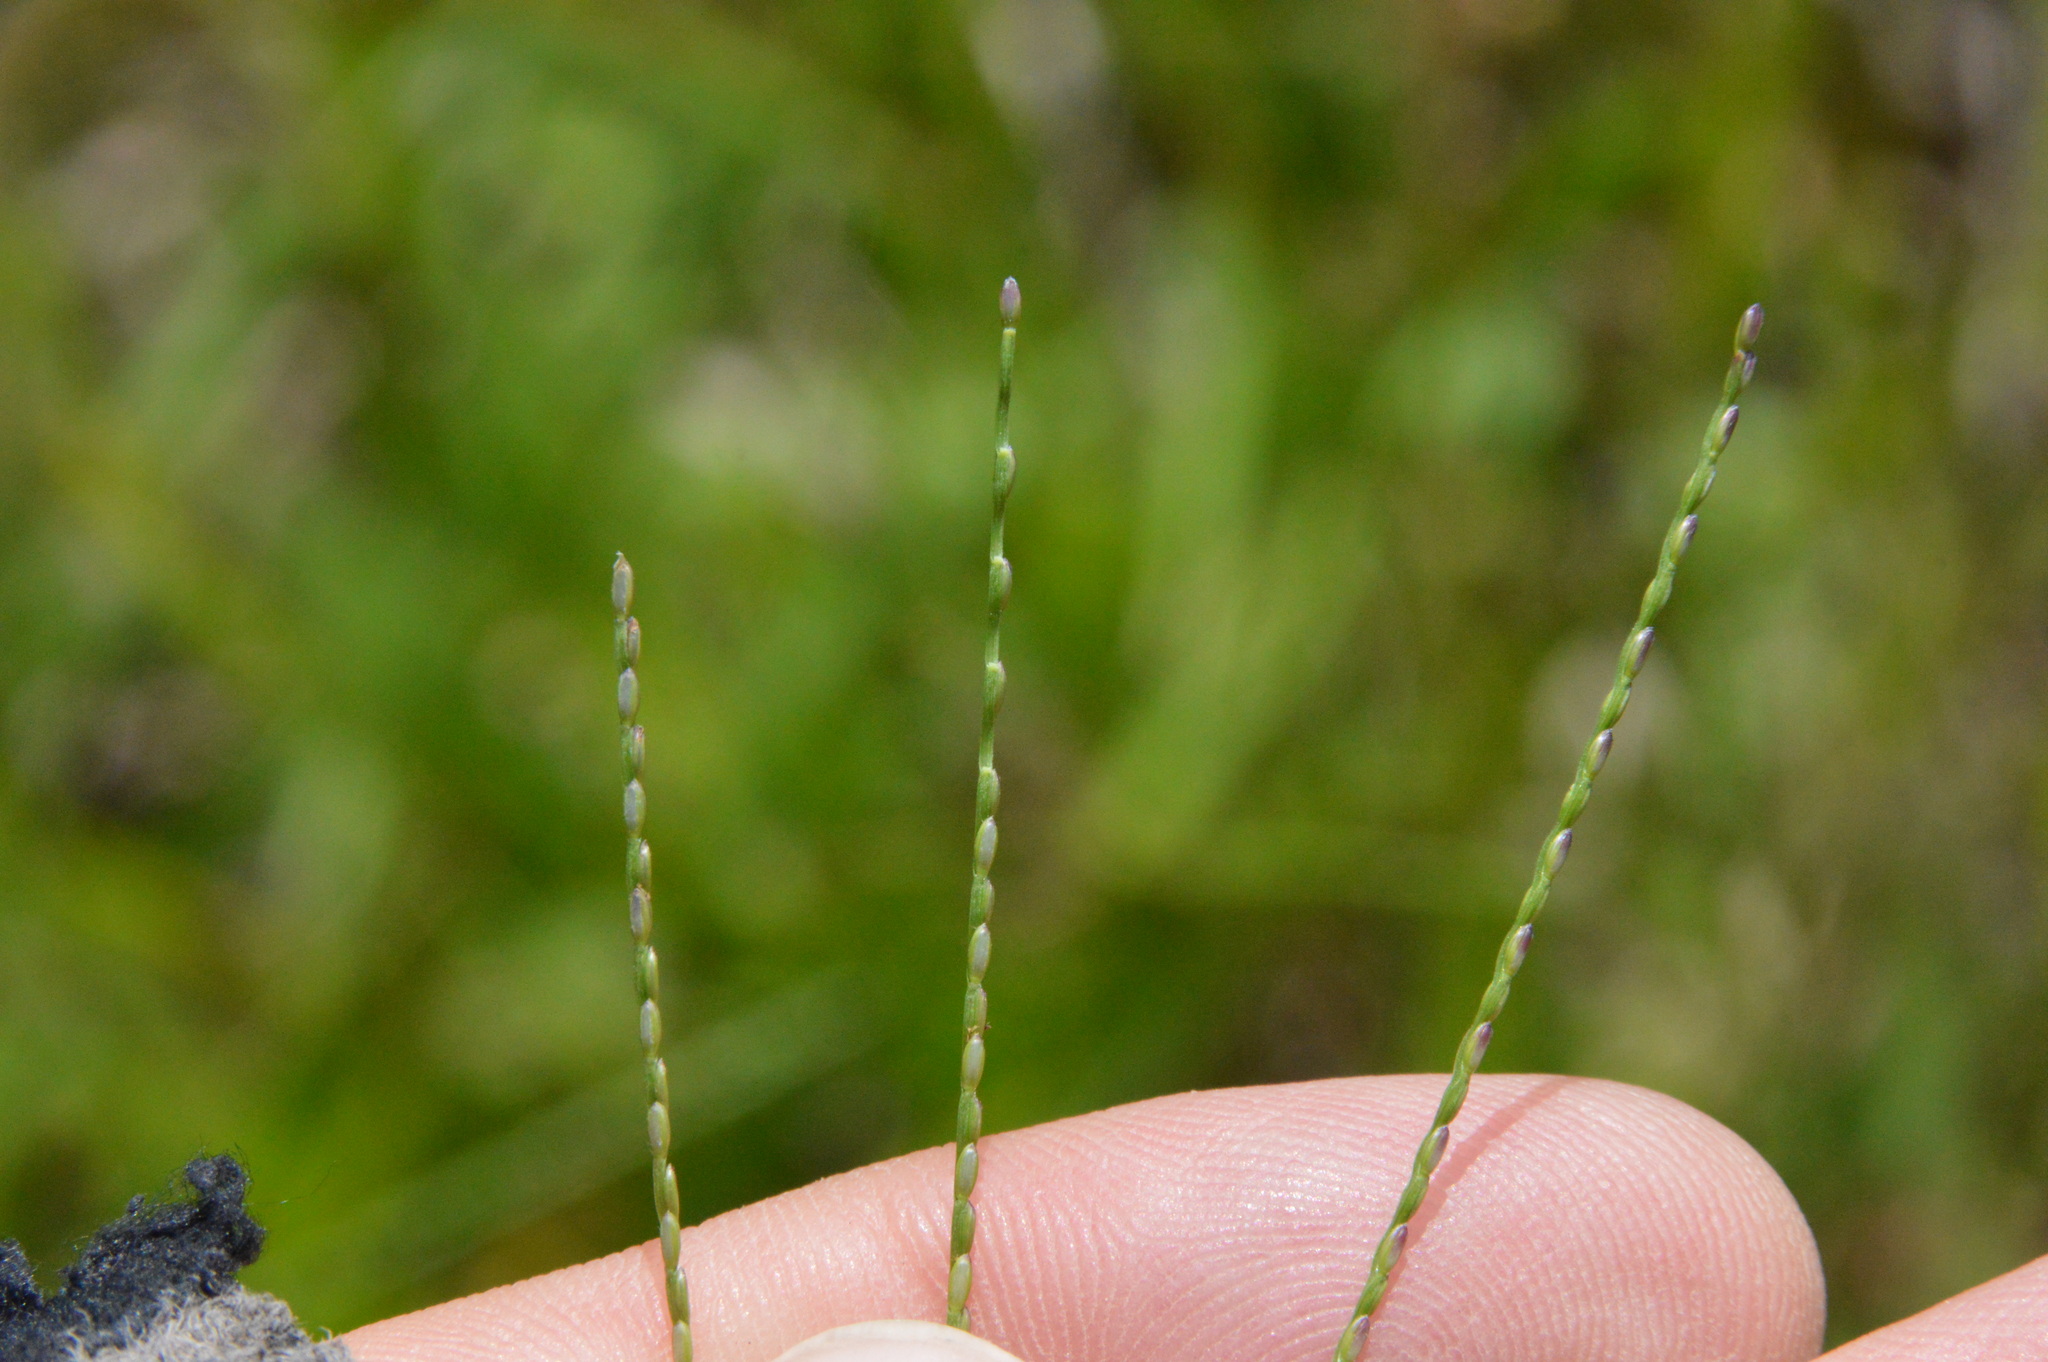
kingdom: Plantae
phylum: Tracheophyta
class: Liliopsida
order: Poales
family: Poaceae
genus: Axonopus
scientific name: Axonopus fissifolius
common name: Common carpetgrass
